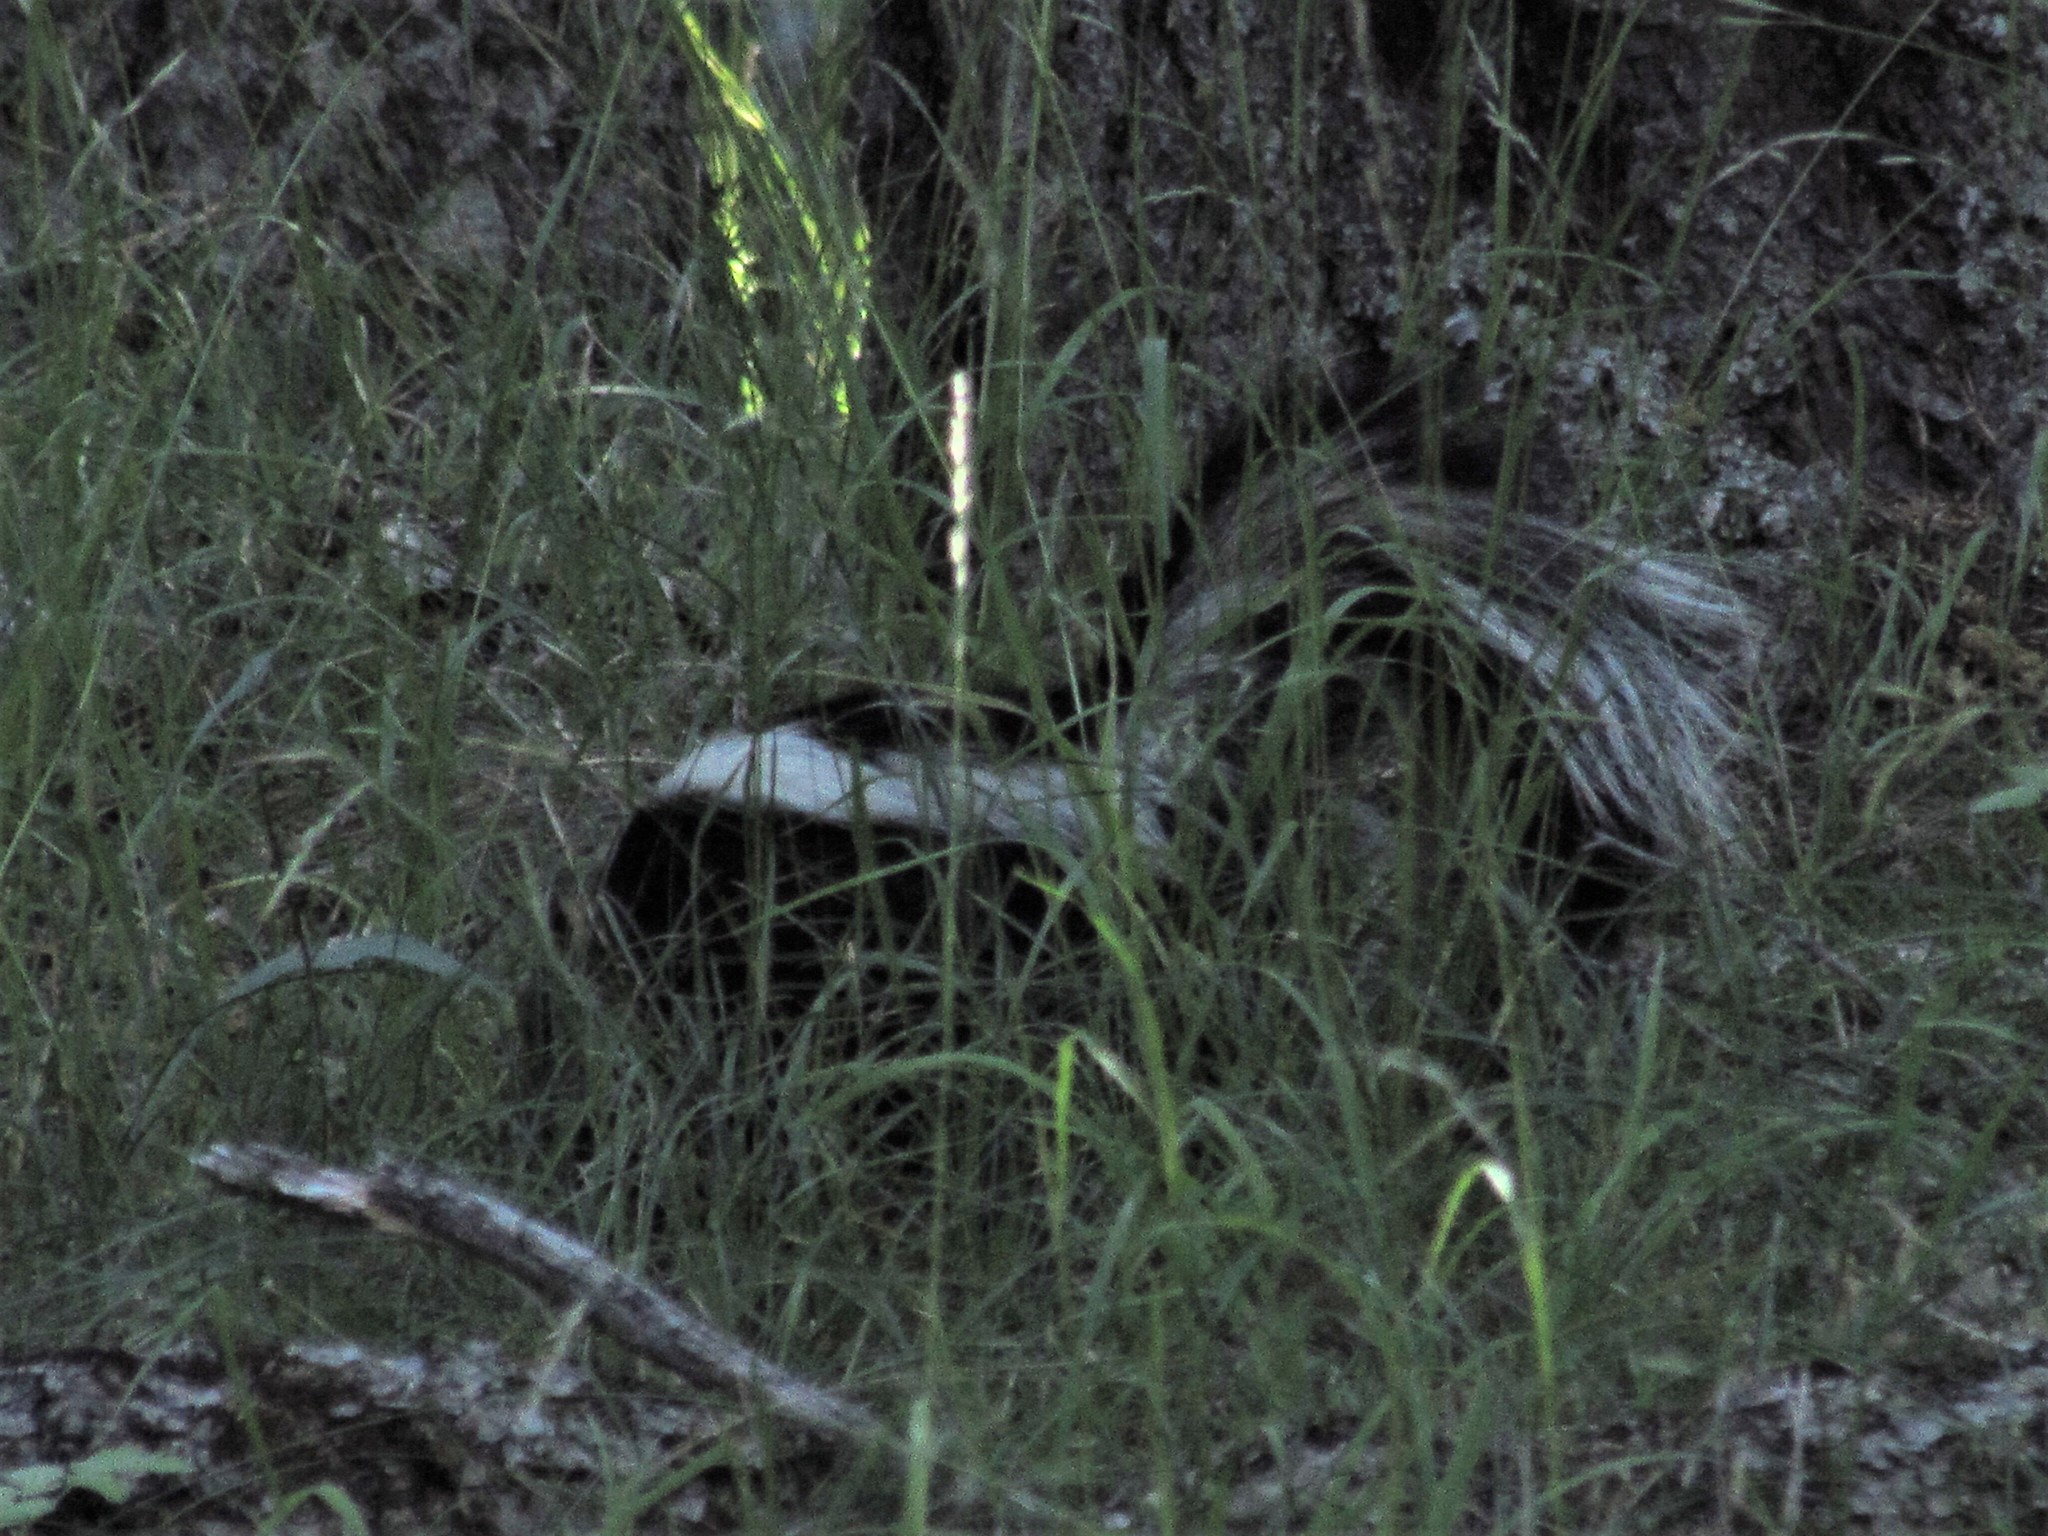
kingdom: Animalia
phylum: Chordata
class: Mammalia
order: Carnivora
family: Mephitidae
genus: Mephitis
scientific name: Mephitis mephitis
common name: Striped skunk
